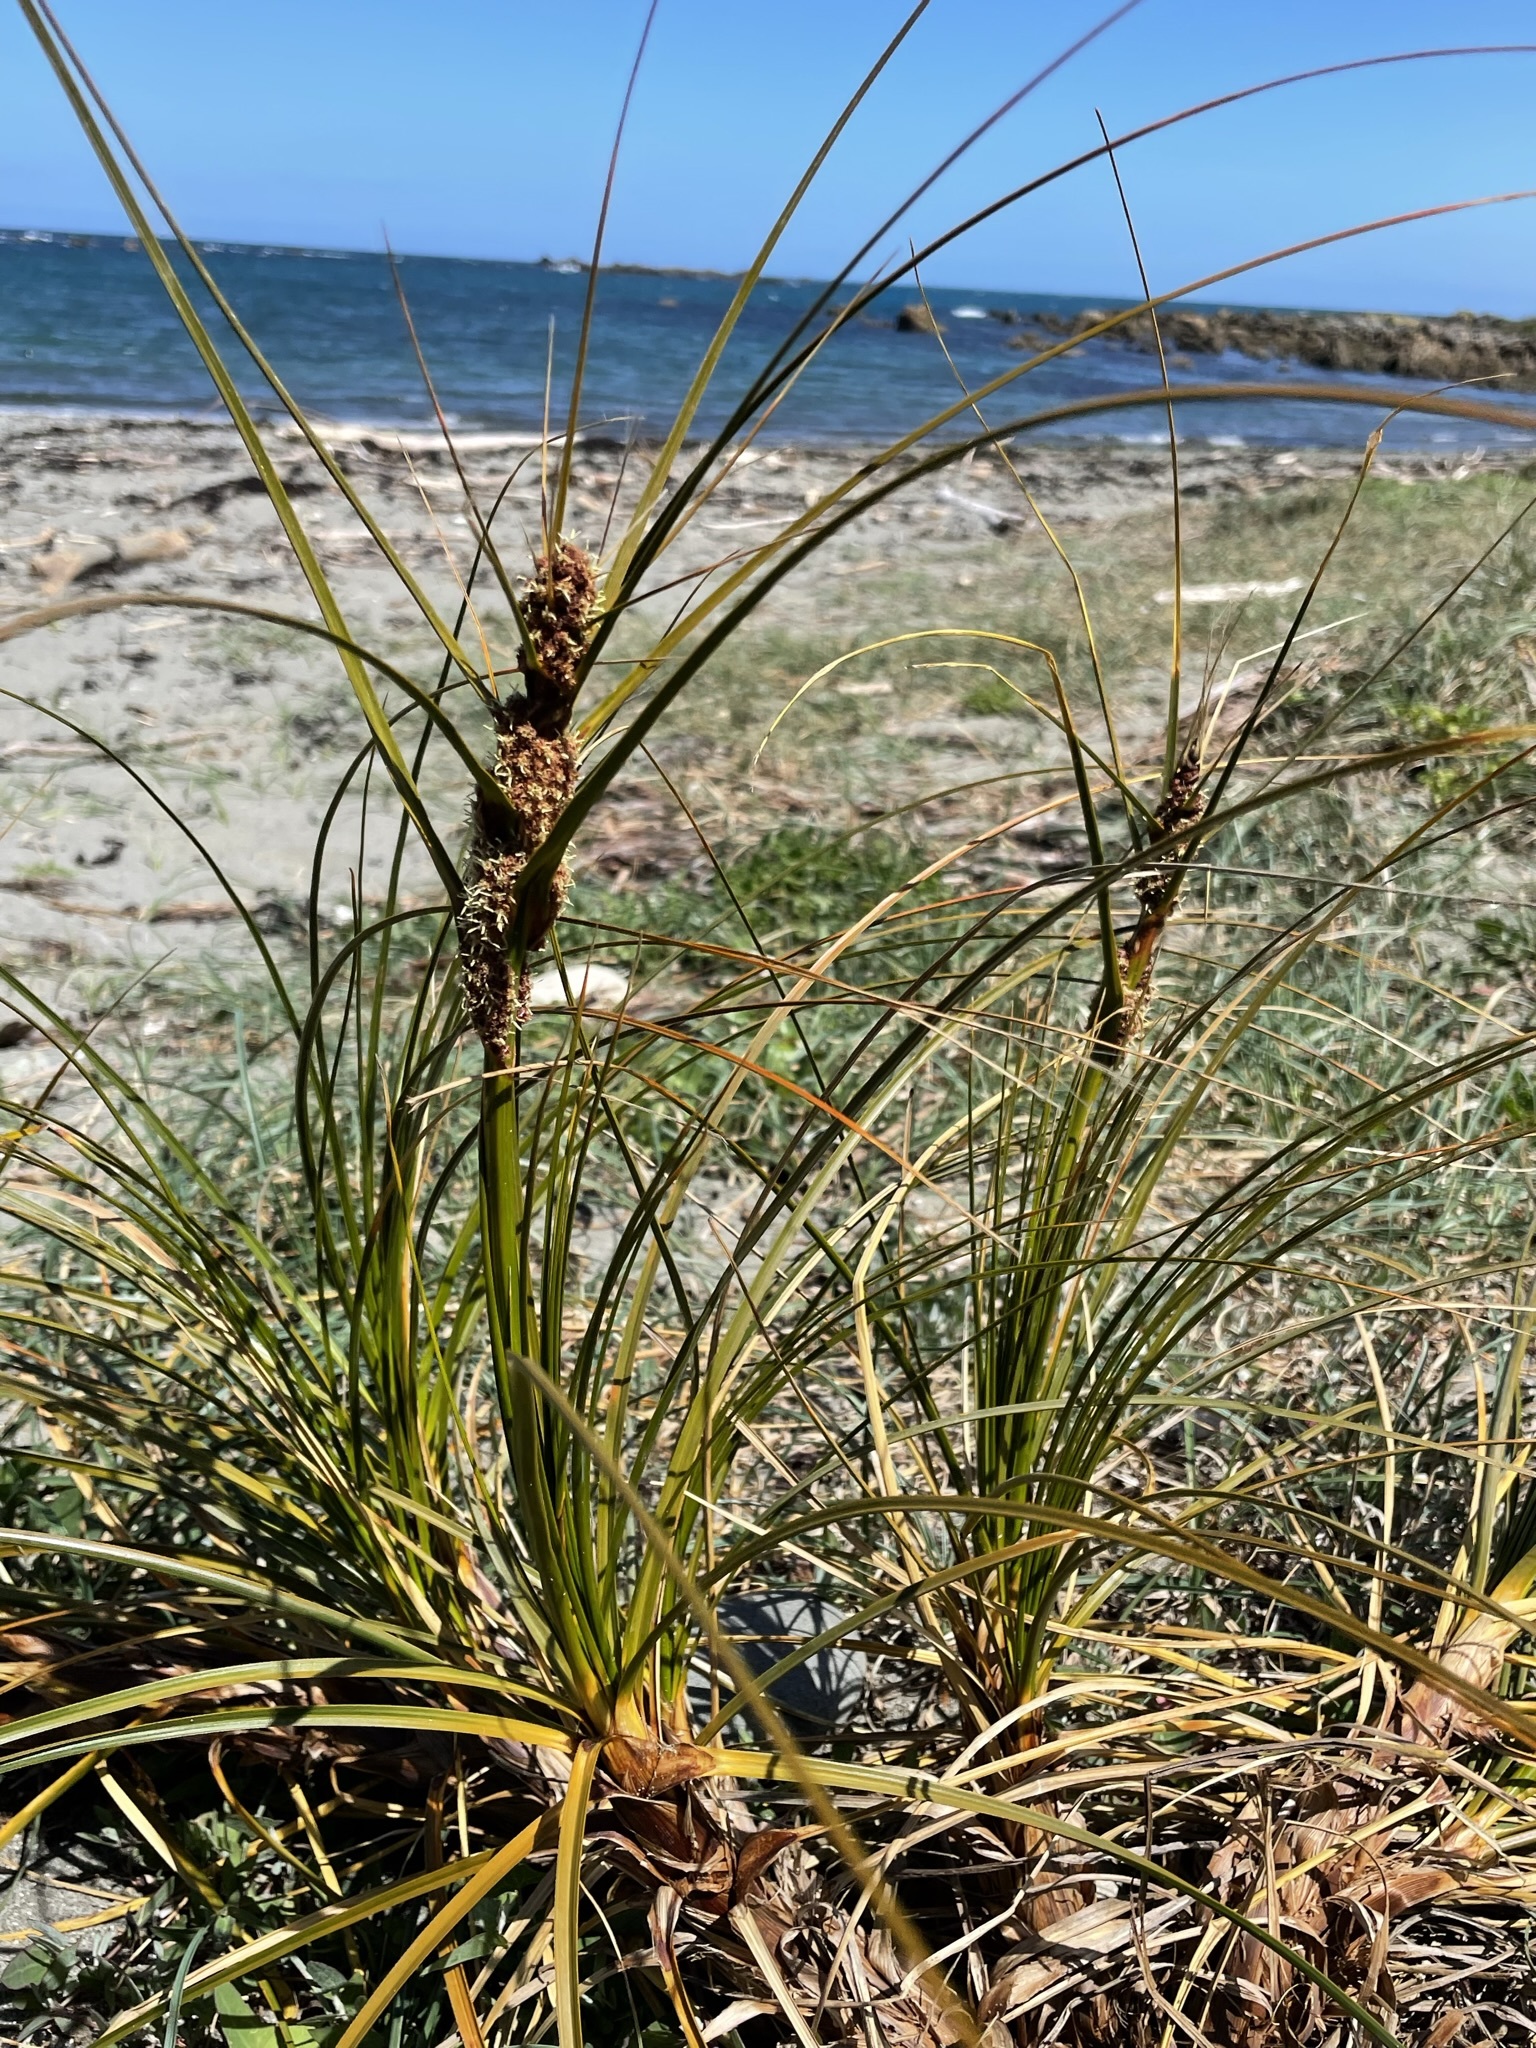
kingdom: Plantae
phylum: Tracheophyta
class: Liliopsida
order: Poales
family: Cyperaceae
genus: Ficinia
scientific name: Ficinia spiralis
